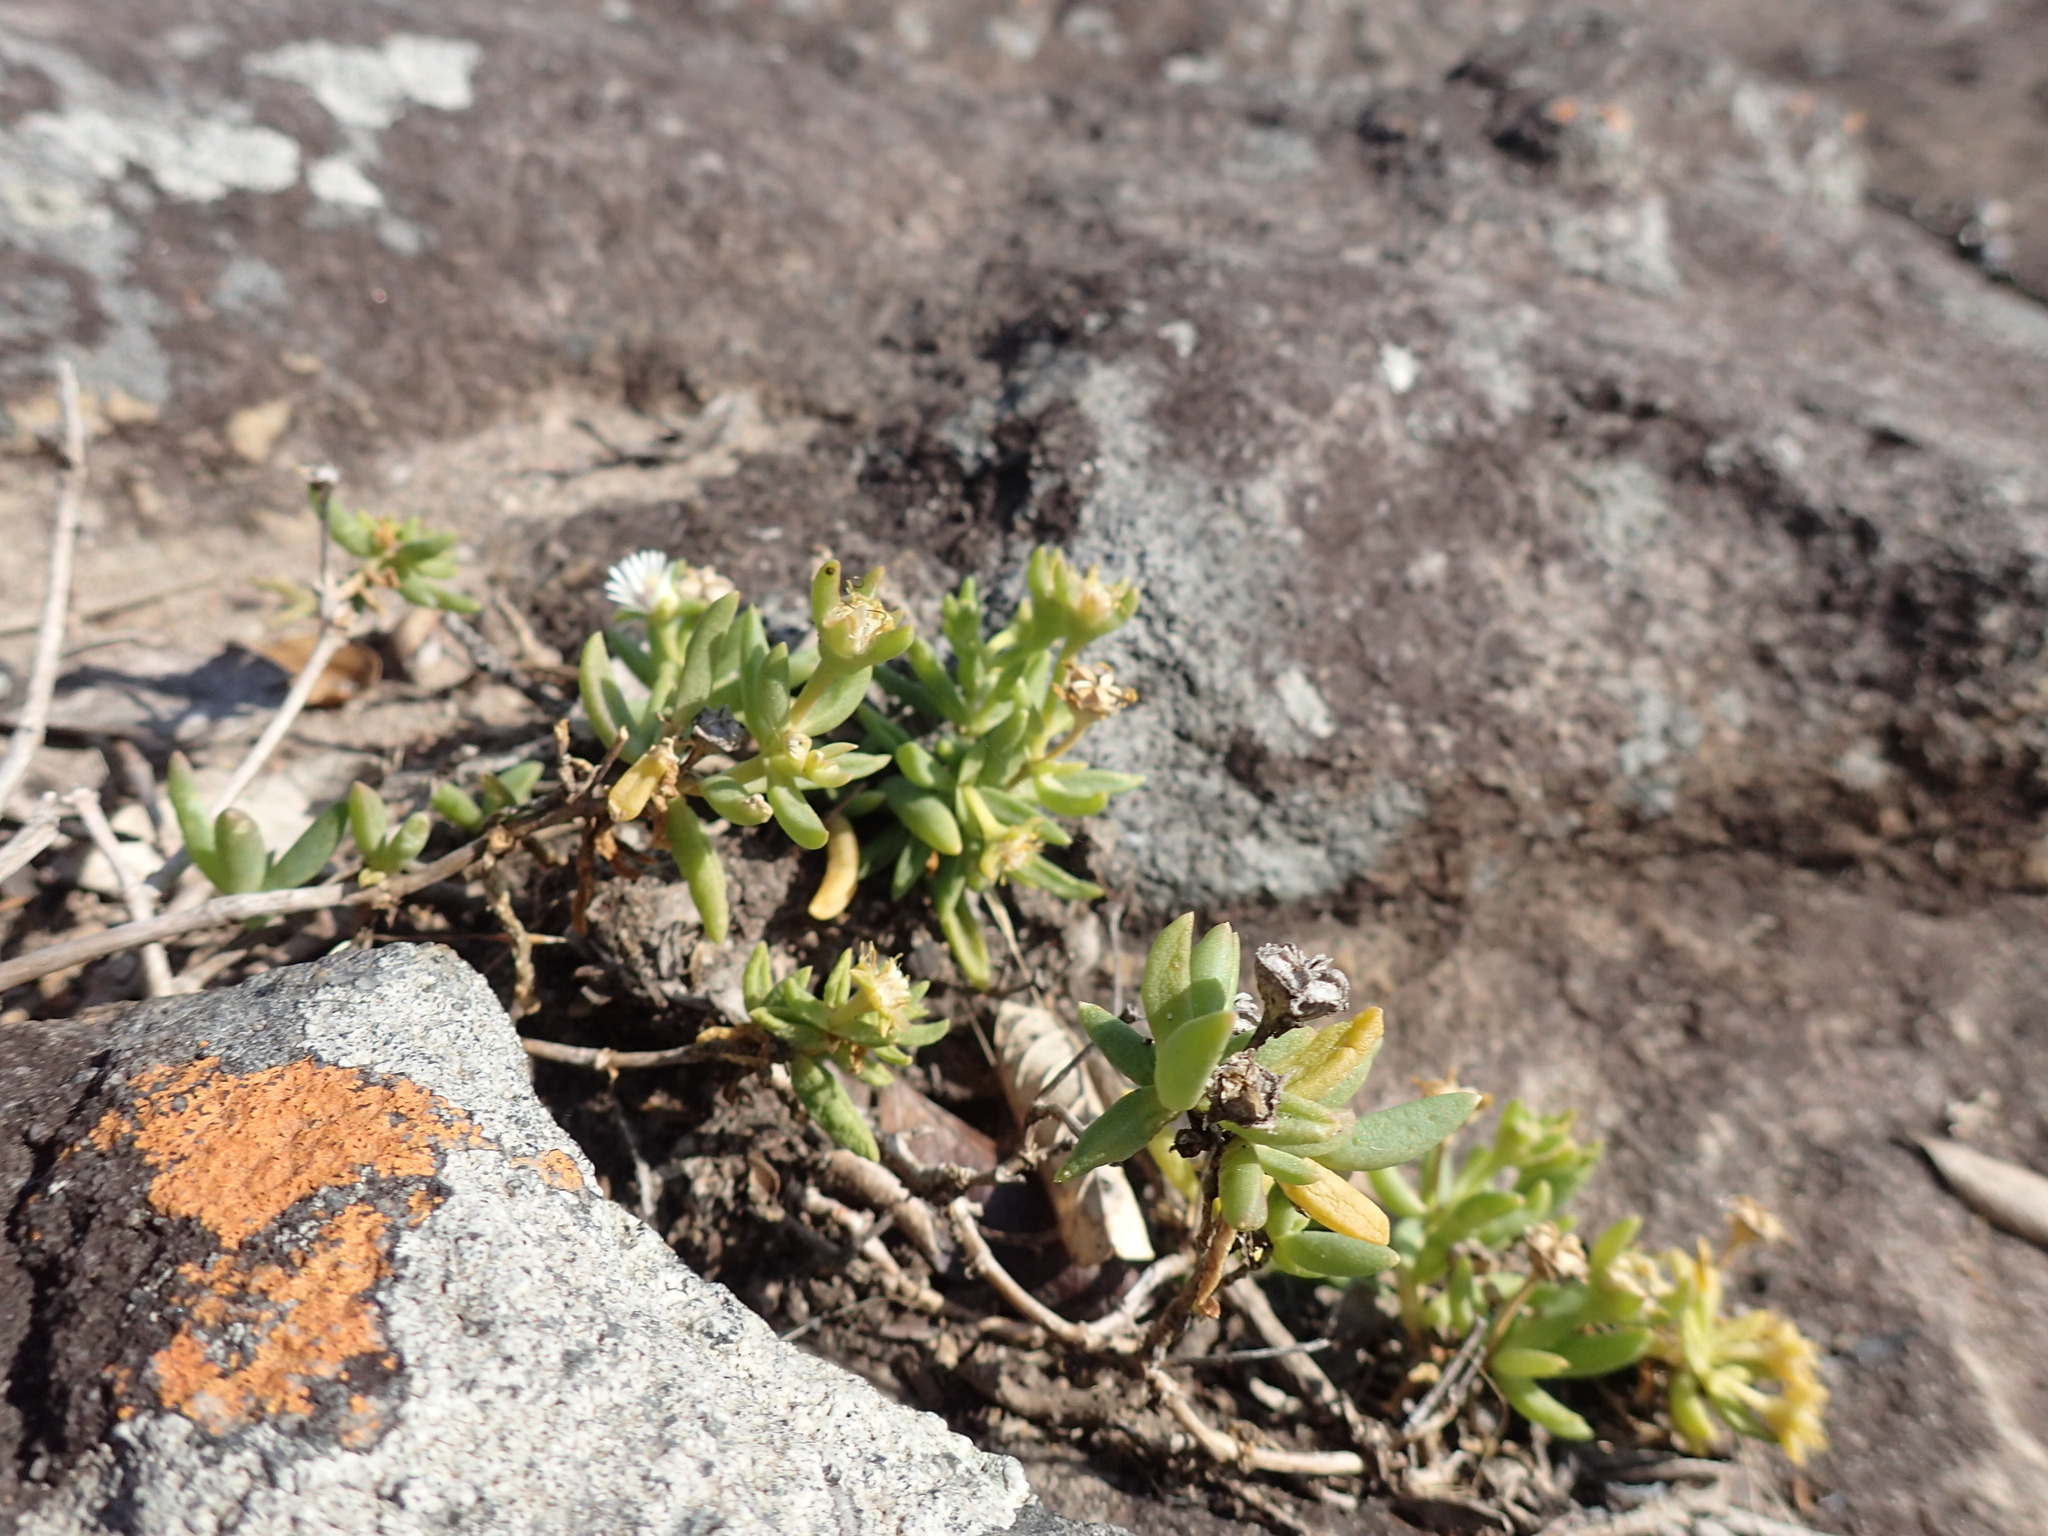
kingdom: Plantae
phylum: Tracheophyta
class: Magnoliopsida
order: Caryophyllales
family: Aizoaceae
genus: Delosperma
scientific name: Delosperma lineare
